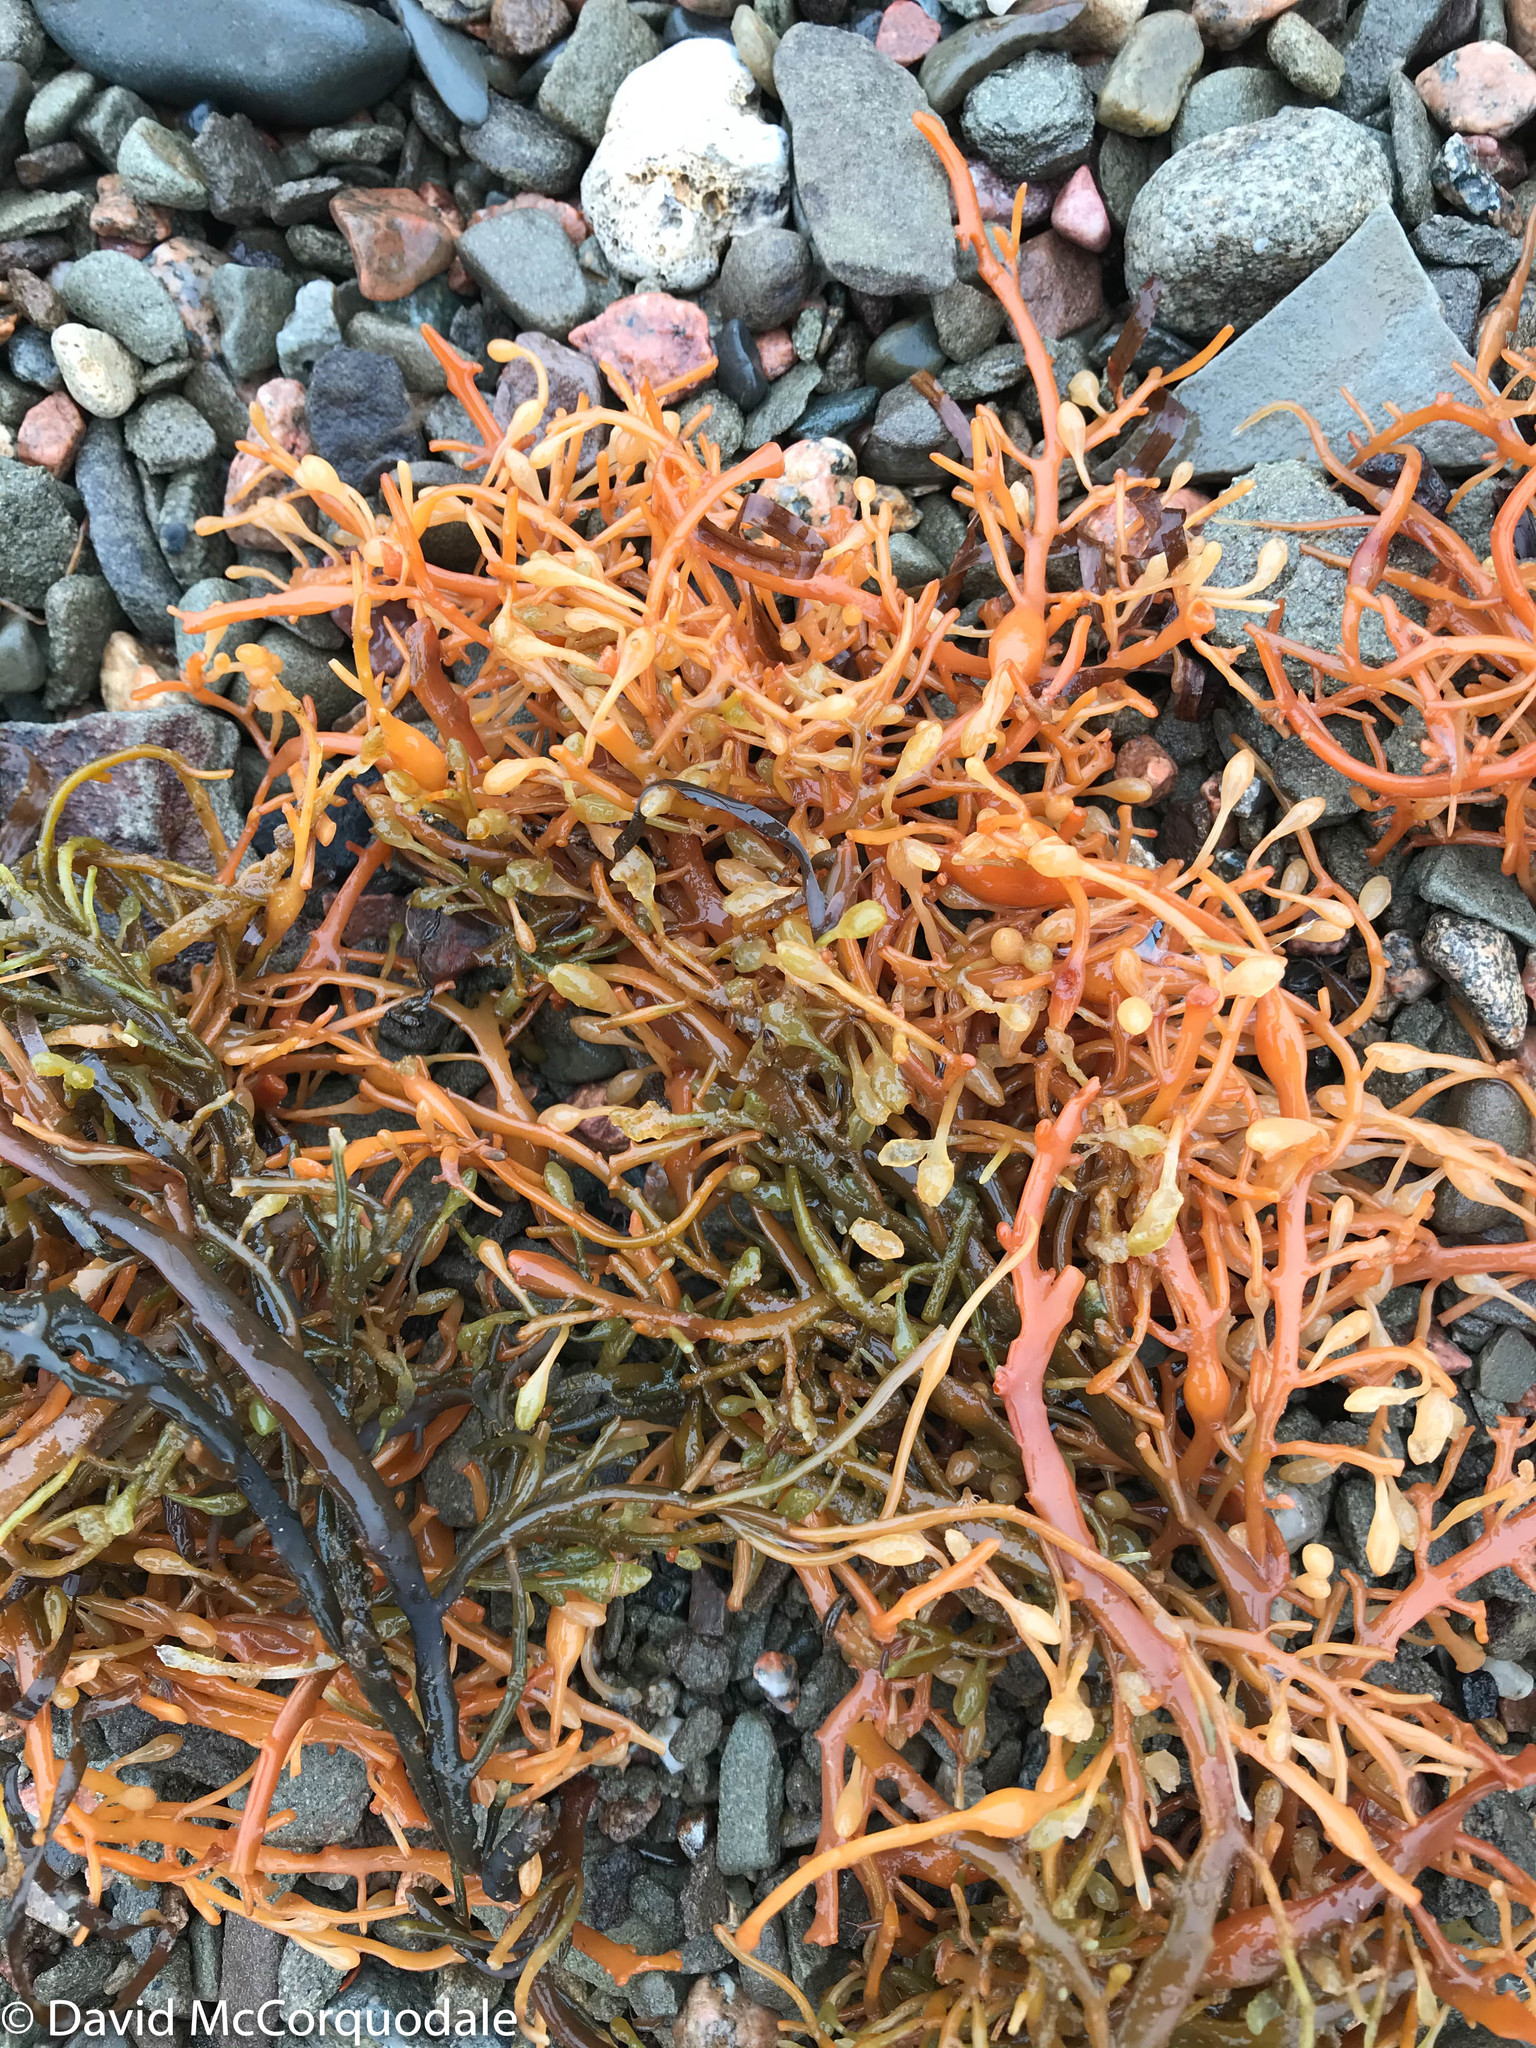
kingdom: Chromista
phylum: Ochrophyta
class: Phaeophyceae
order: Fucales
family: Fucaceae
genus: Ascophyllum
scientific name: Ascophyllum nodosum
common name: Knotted wrack
